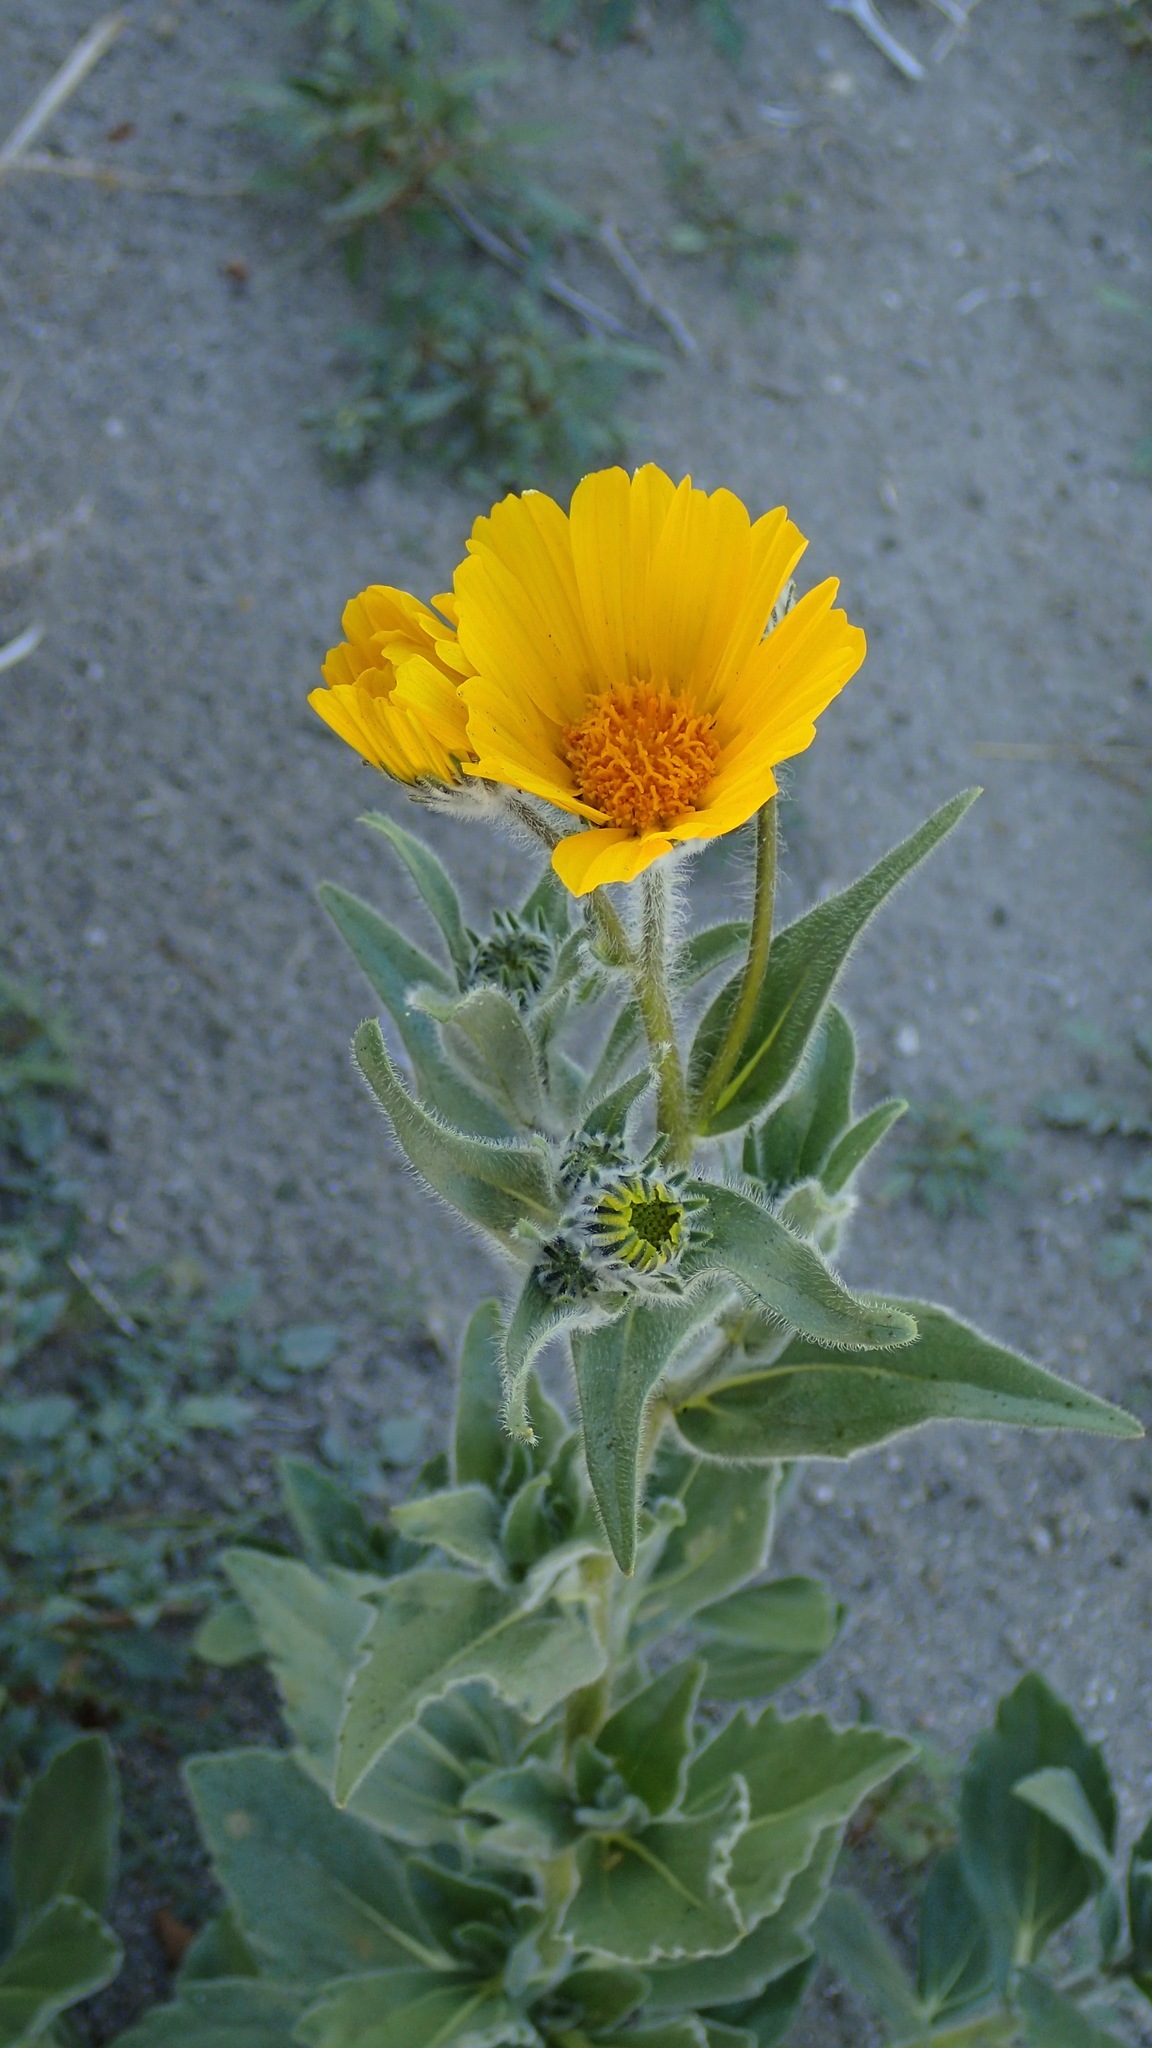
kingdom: Plantae
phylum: Tracheophyta
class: Magnoliopsida
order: Asterales
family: Asteraceae
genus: Geraea
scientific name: Geraea canescens
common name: Desert-gold
